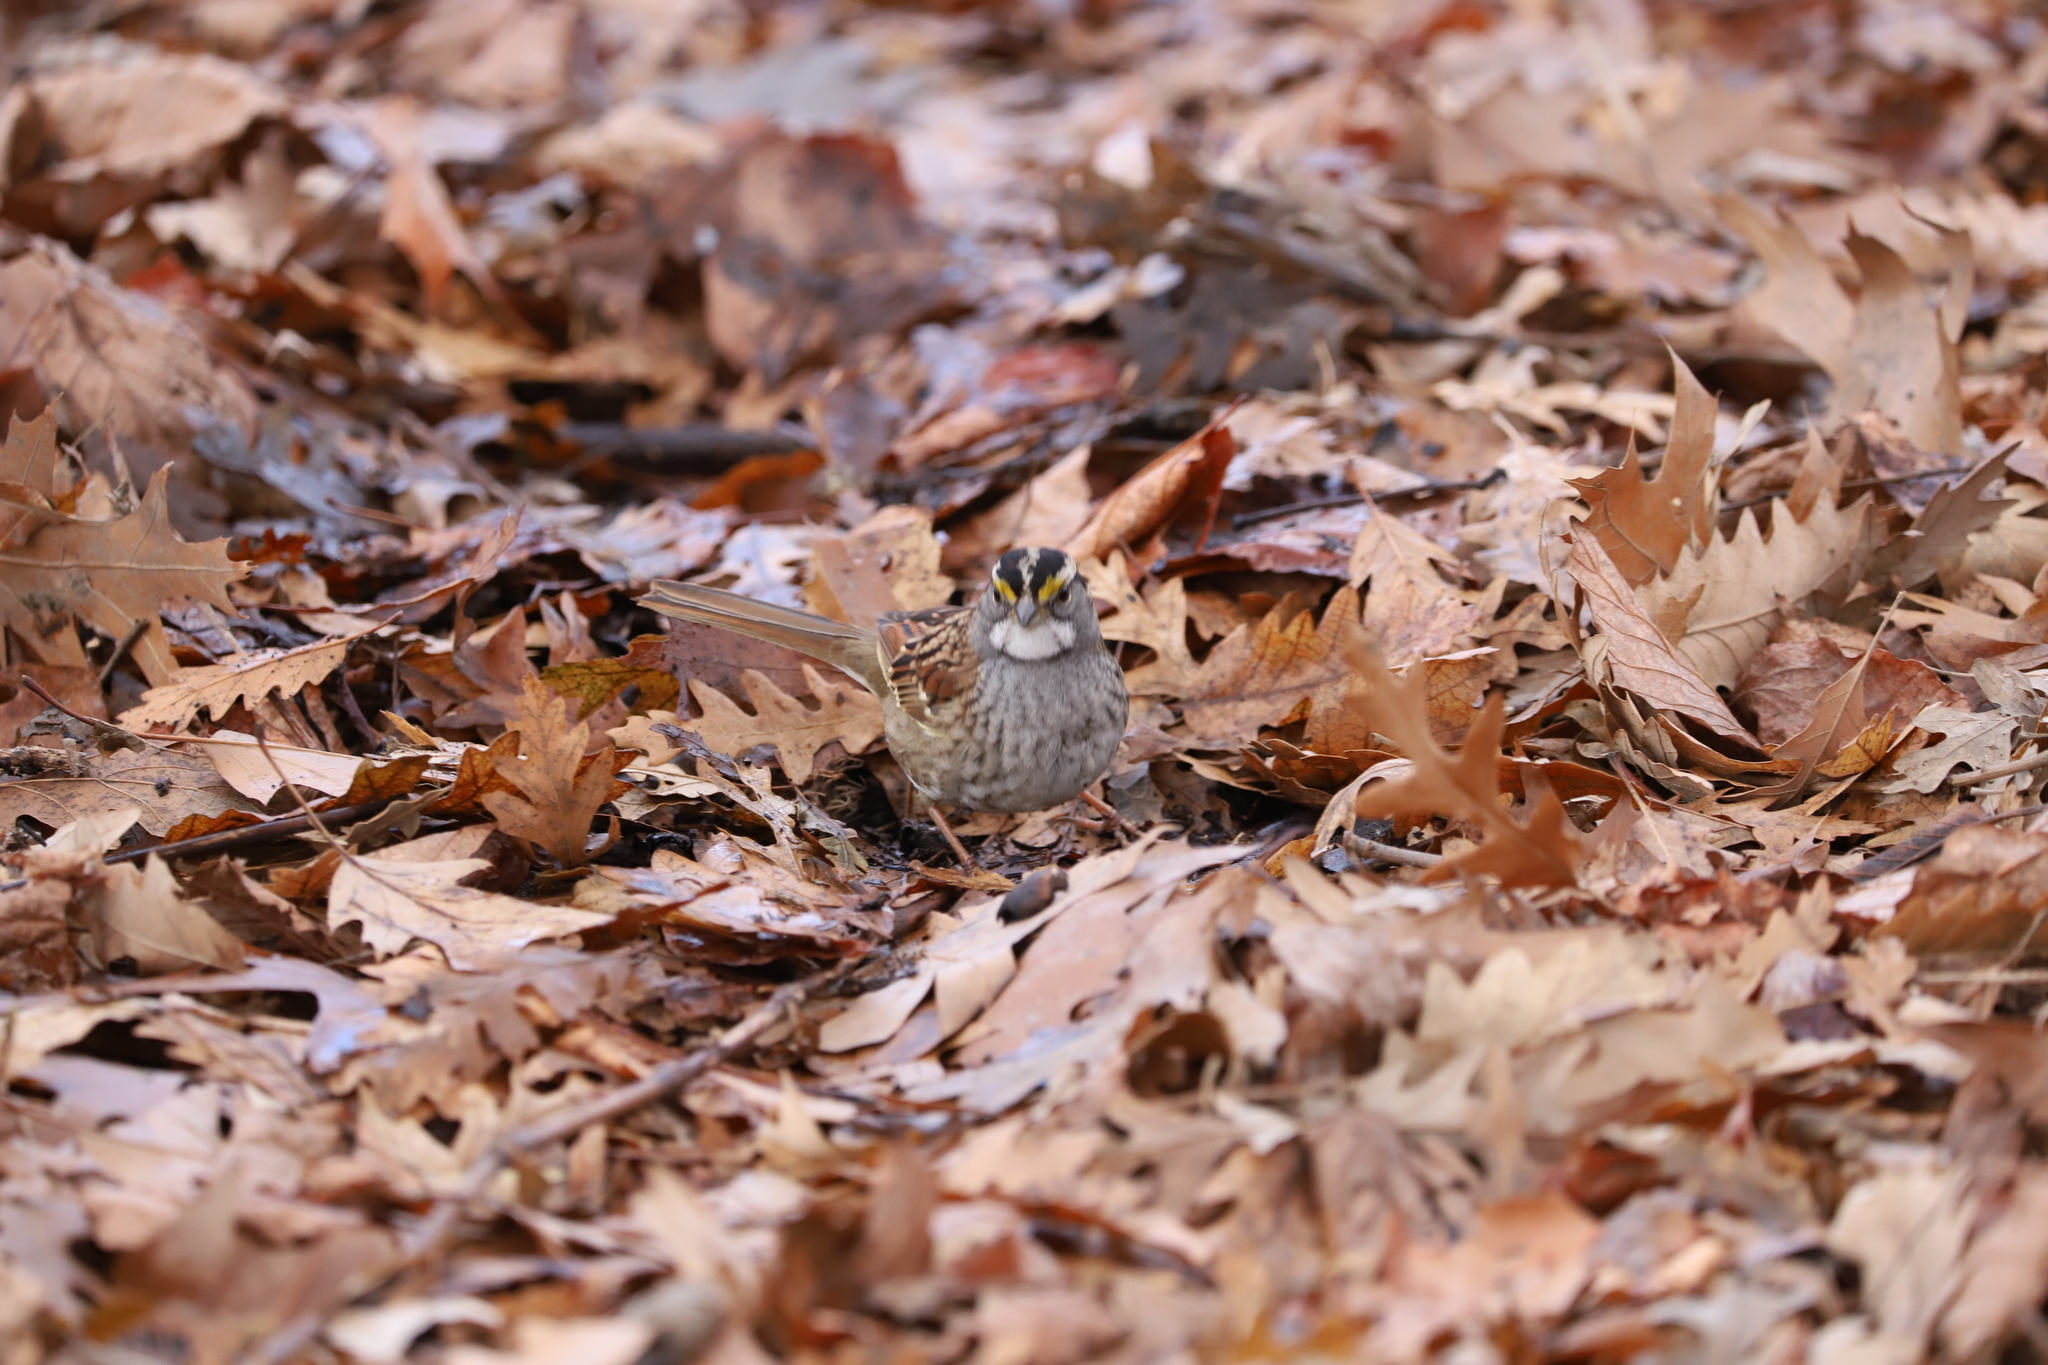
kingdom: Animalia
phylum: Chordata
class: Aves
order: Passeriformes
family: Passerellidae
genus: Zonotrichia
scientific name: Zonotrichia albicollis
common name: White-throated sparrow
